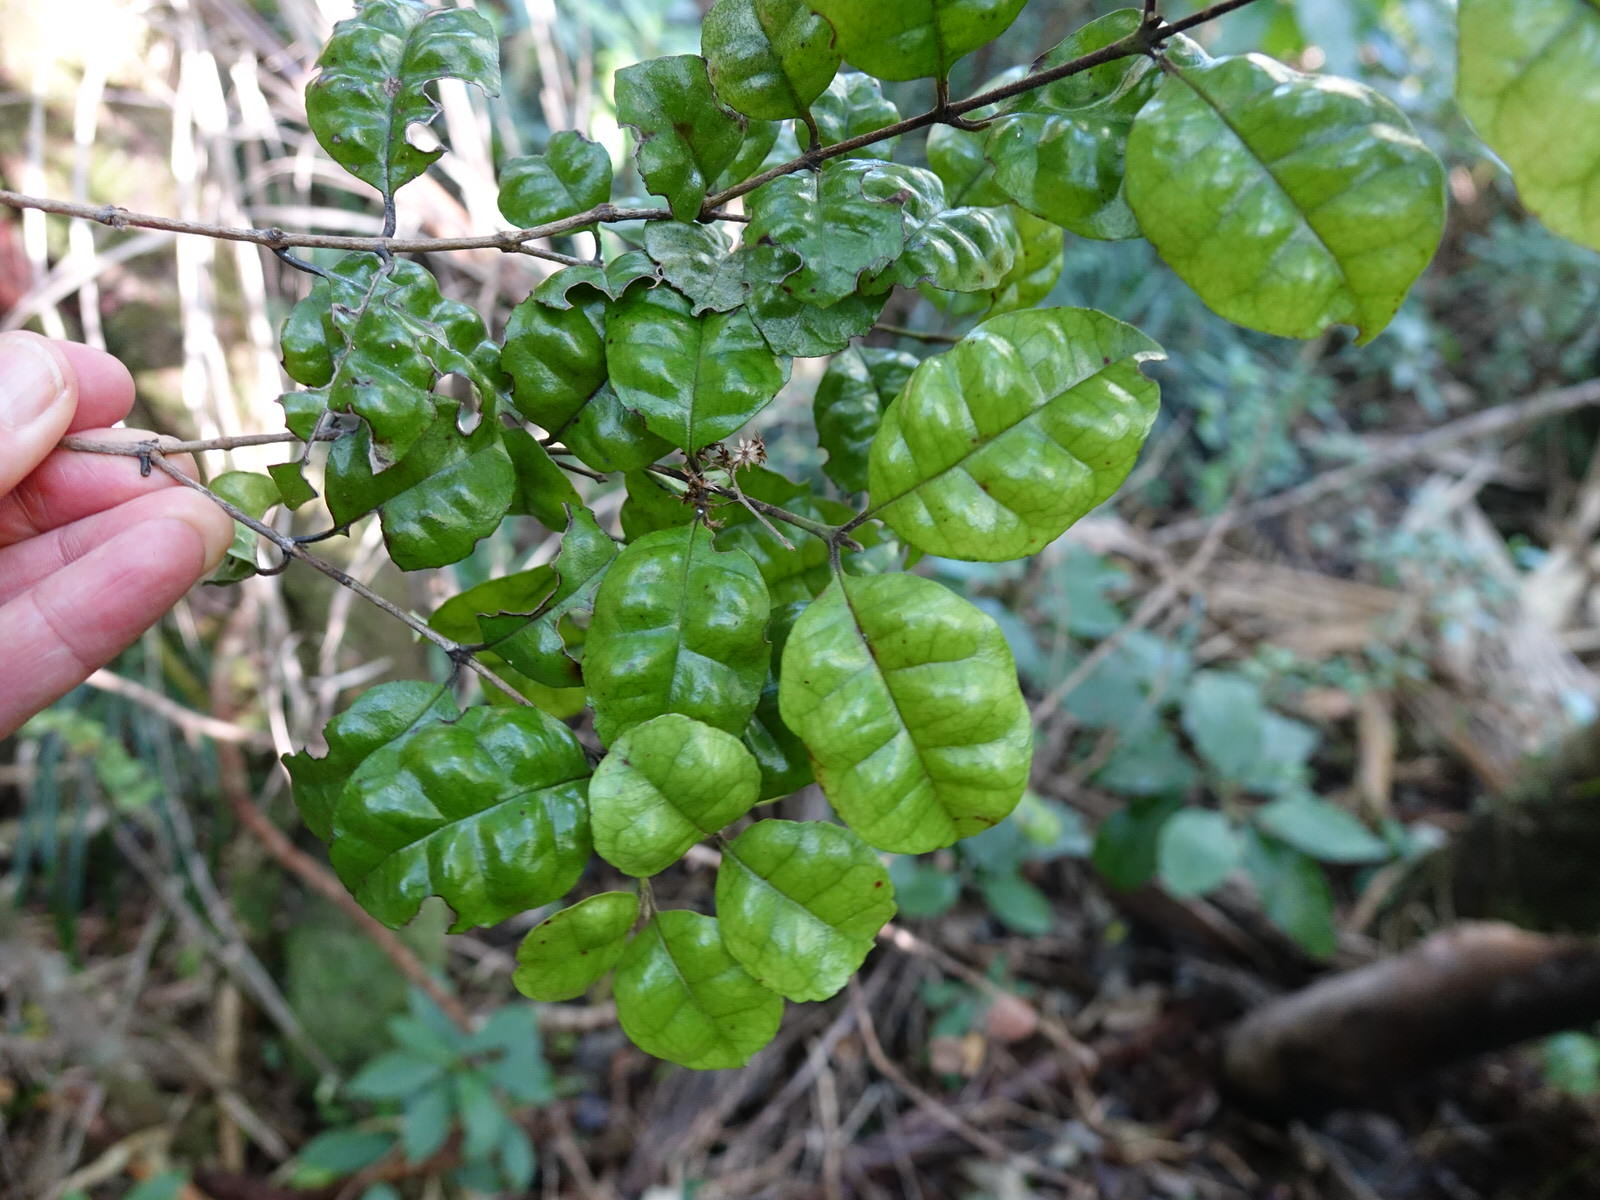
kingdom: Plantae
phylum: Tracheophyta
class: Magnoliopsida
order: Myrtales
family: Myrtaceae
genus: Lophomyrtus
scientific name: Lophomyrtus bullata
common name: Rama rama
